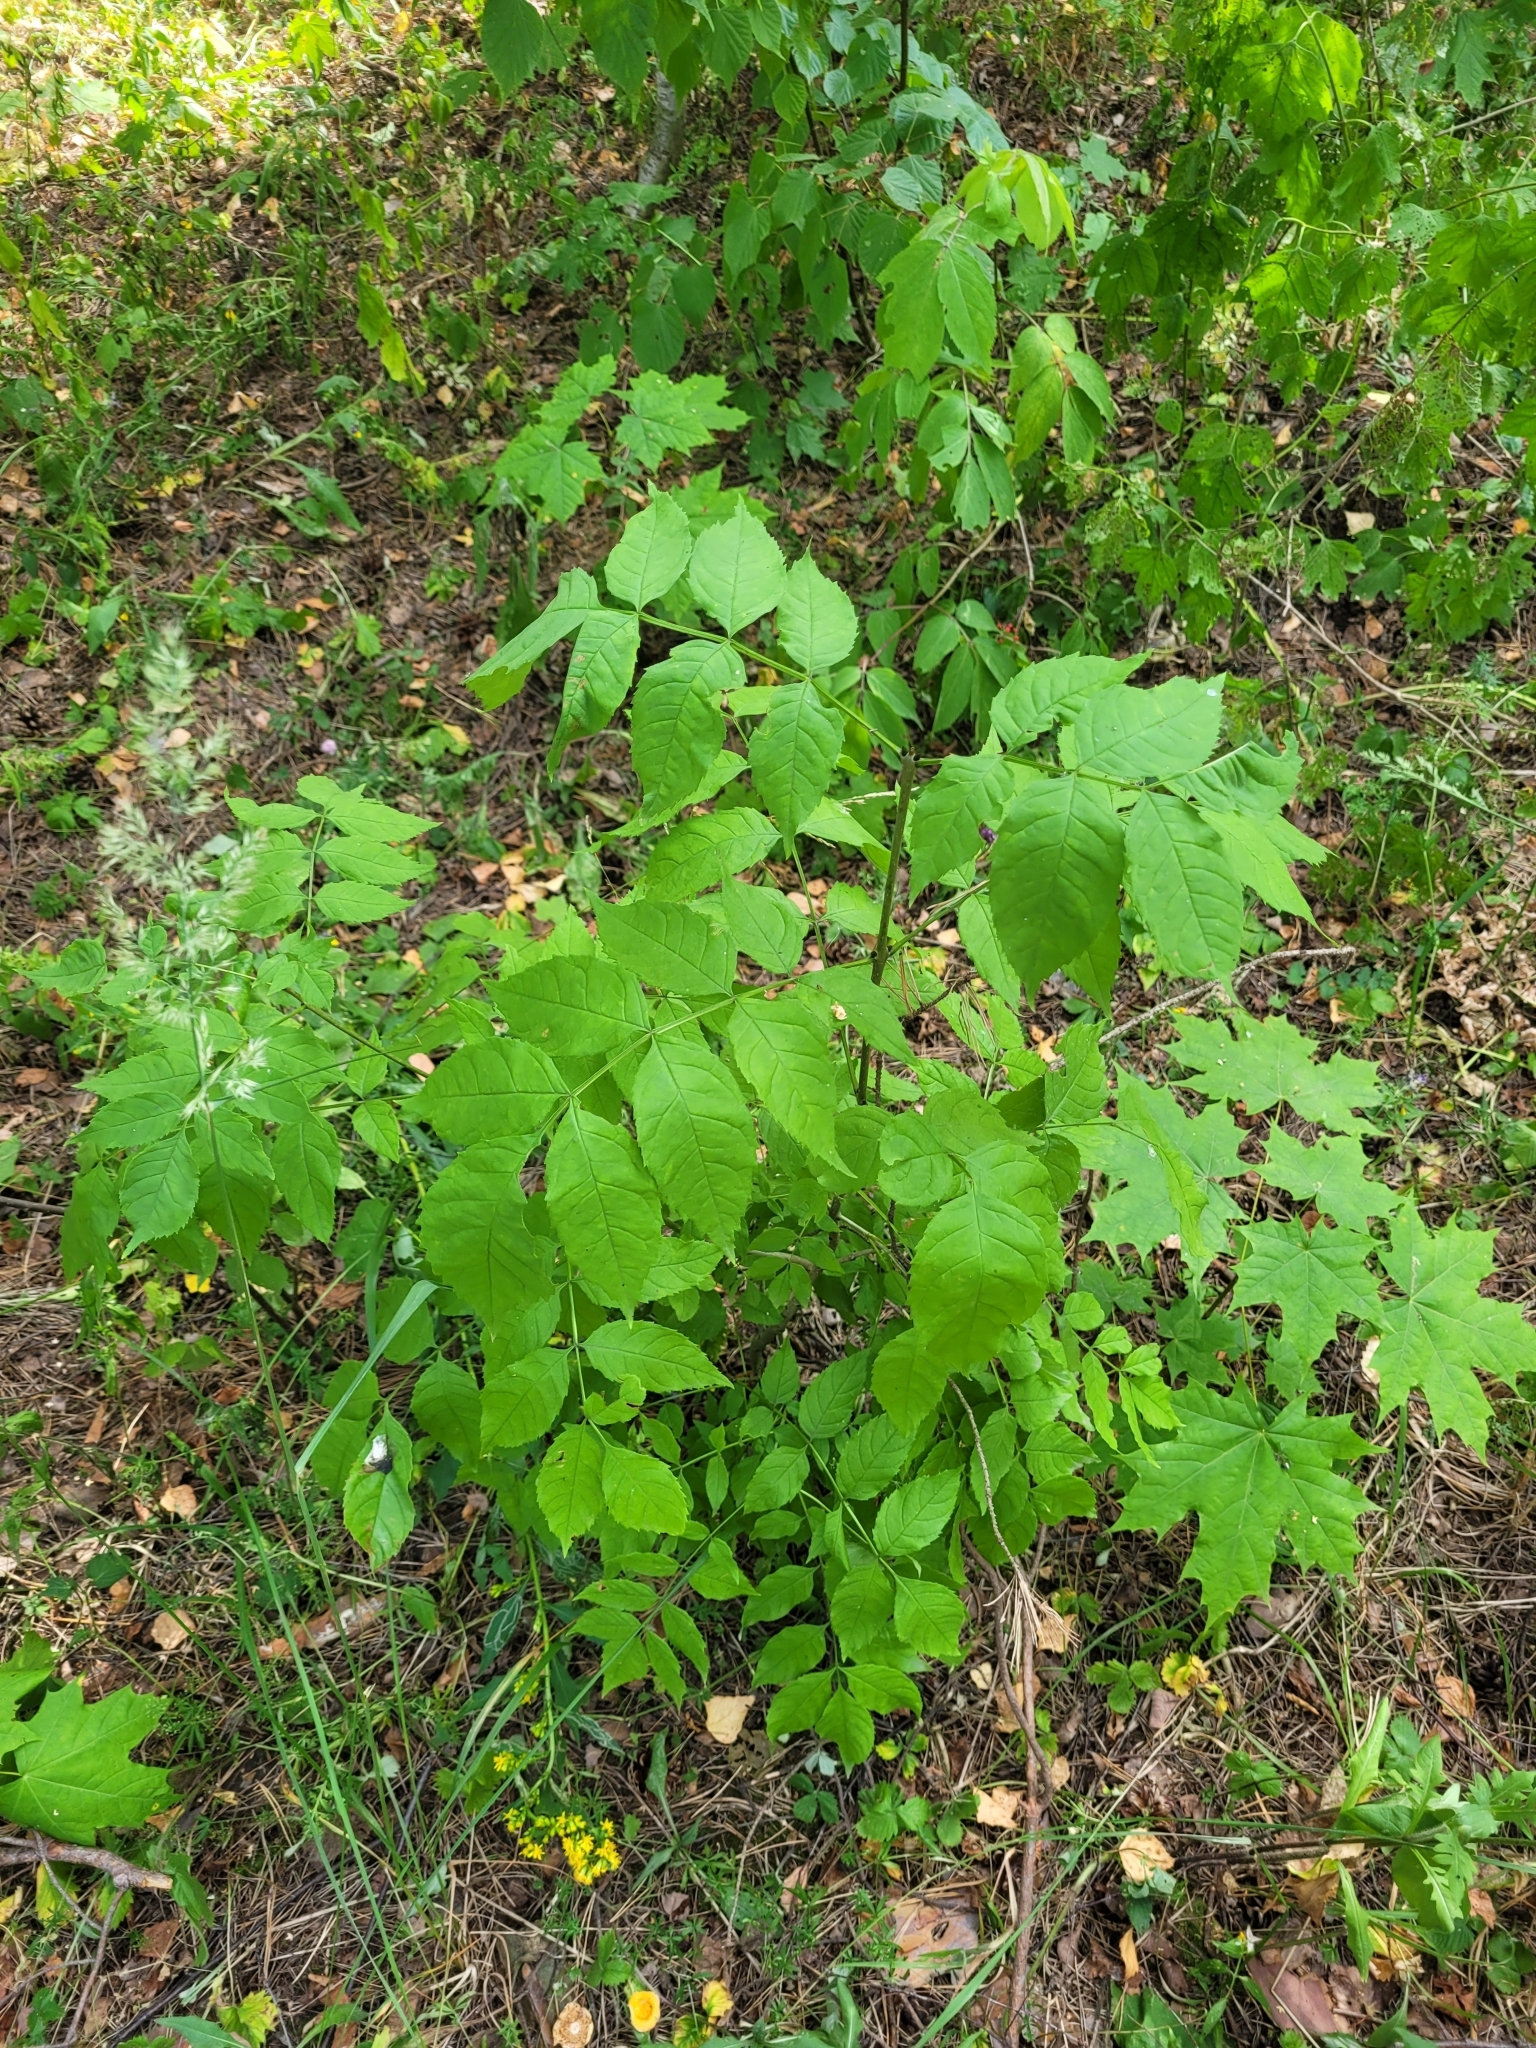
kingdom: Plantae
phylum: Tracheophyta
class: Magnoliopsida
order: Lamiales
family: Oleaceae
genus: Fraxinus
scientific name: Fraxinus excelsior
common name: European ash
